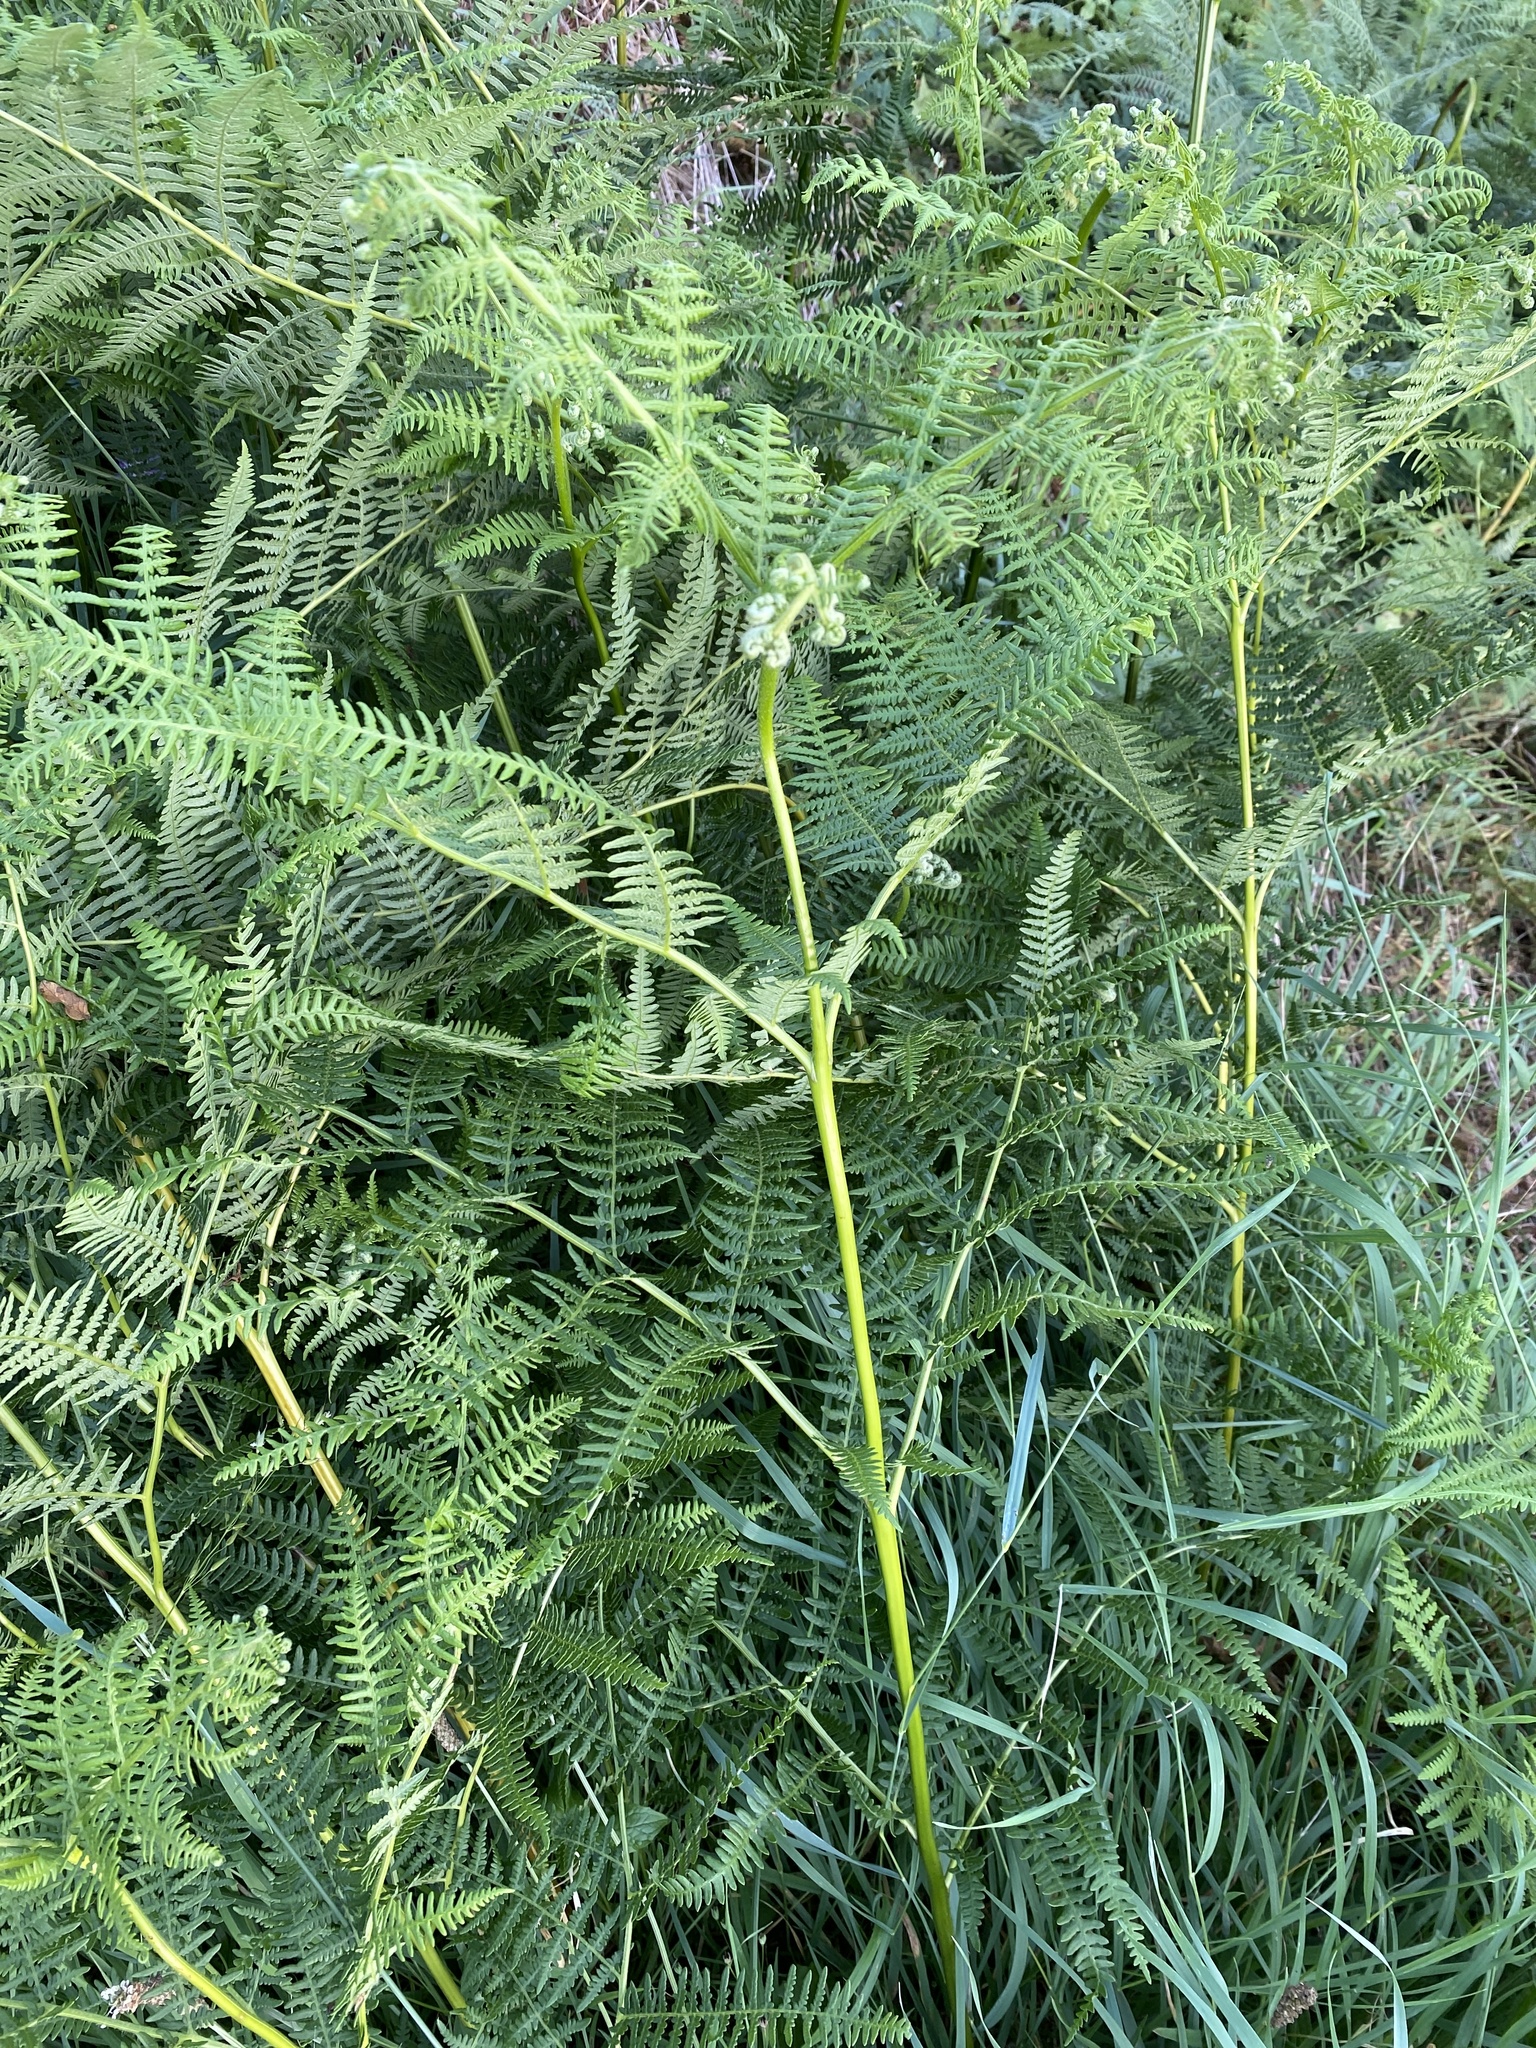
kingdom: Plantae
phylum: Tracheophyta
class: Polypodiopsida
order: Polypodiales
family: Dennstaedtiaceae
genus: Pteridium
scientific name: Pteridium aquilinum
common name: Bracken
